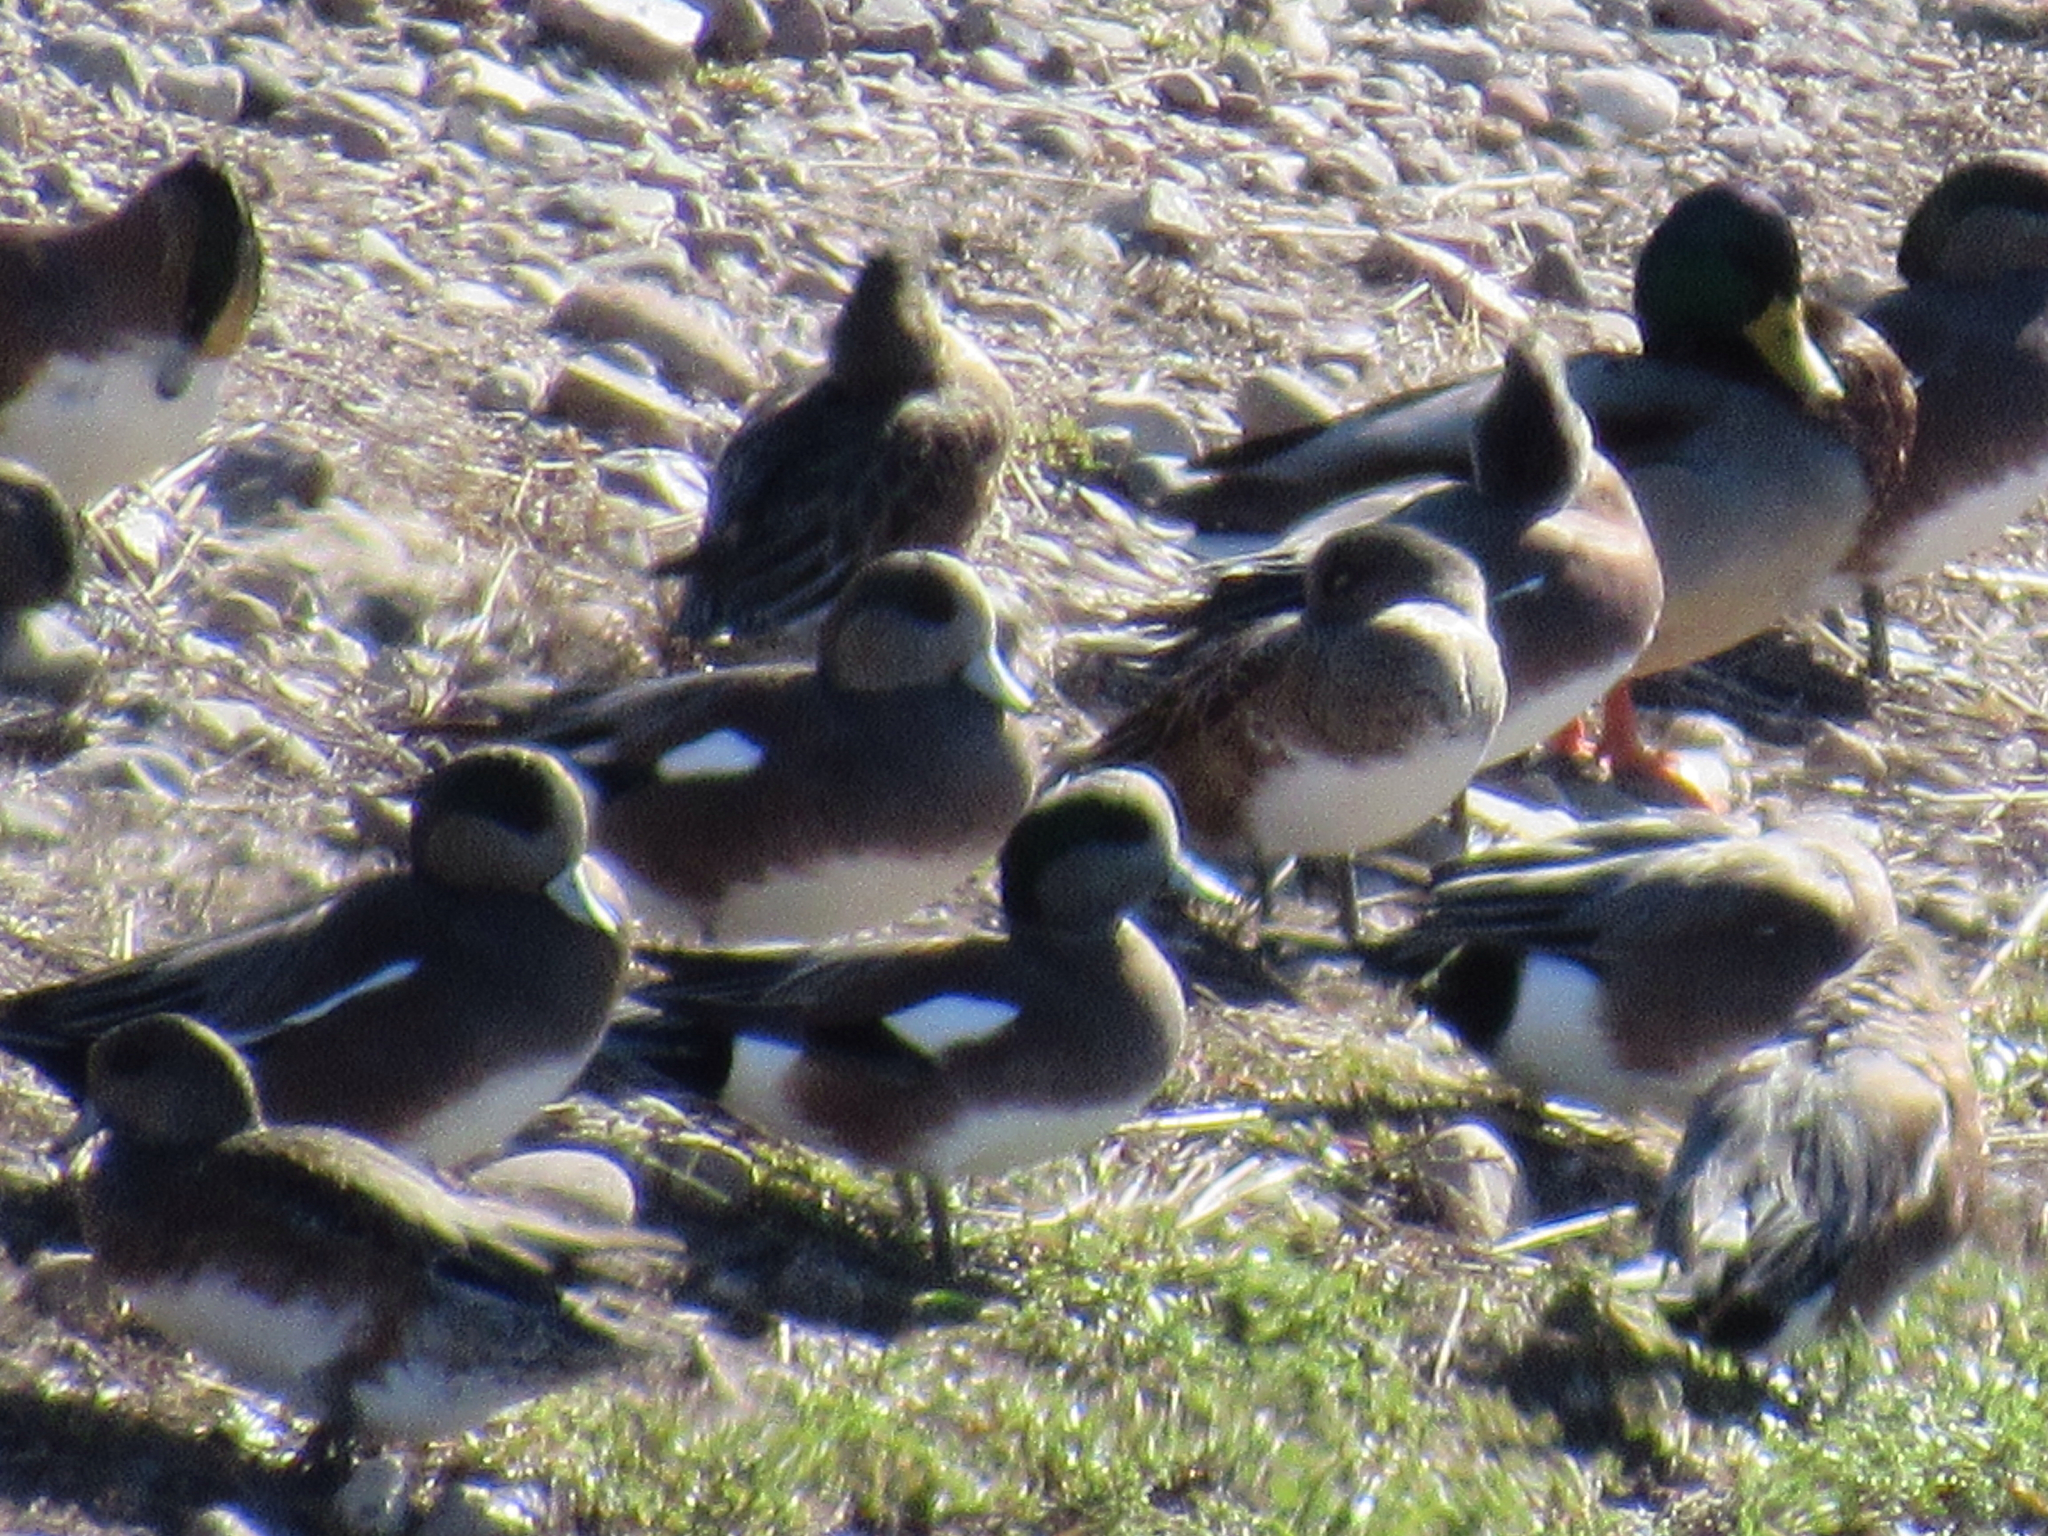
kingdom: Animalia
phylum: Chordata
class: Aves
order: Anseriformes
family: Anatidae
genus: Mareca
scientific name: Mareca americana
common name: American wigeon
